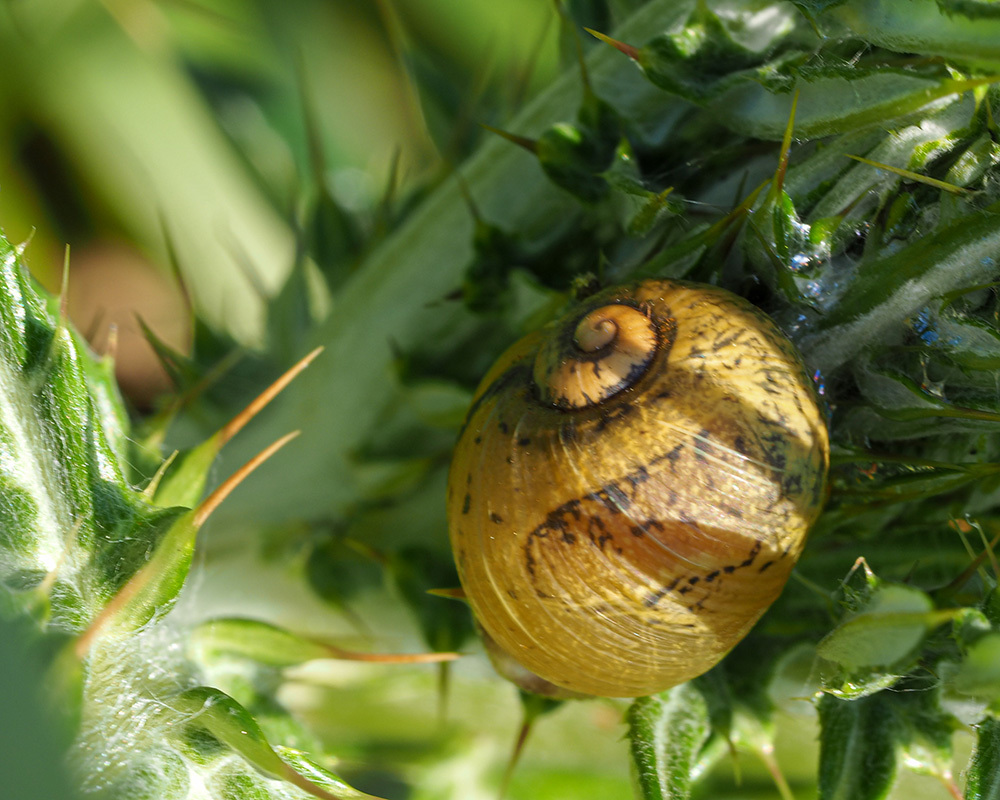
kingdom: Animalia
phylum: Mollusca
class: Gastropoda
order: Stylommatophora
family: Helicidae
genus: Cantareus
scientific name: Cantareus apertus
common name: Green gardensnail
